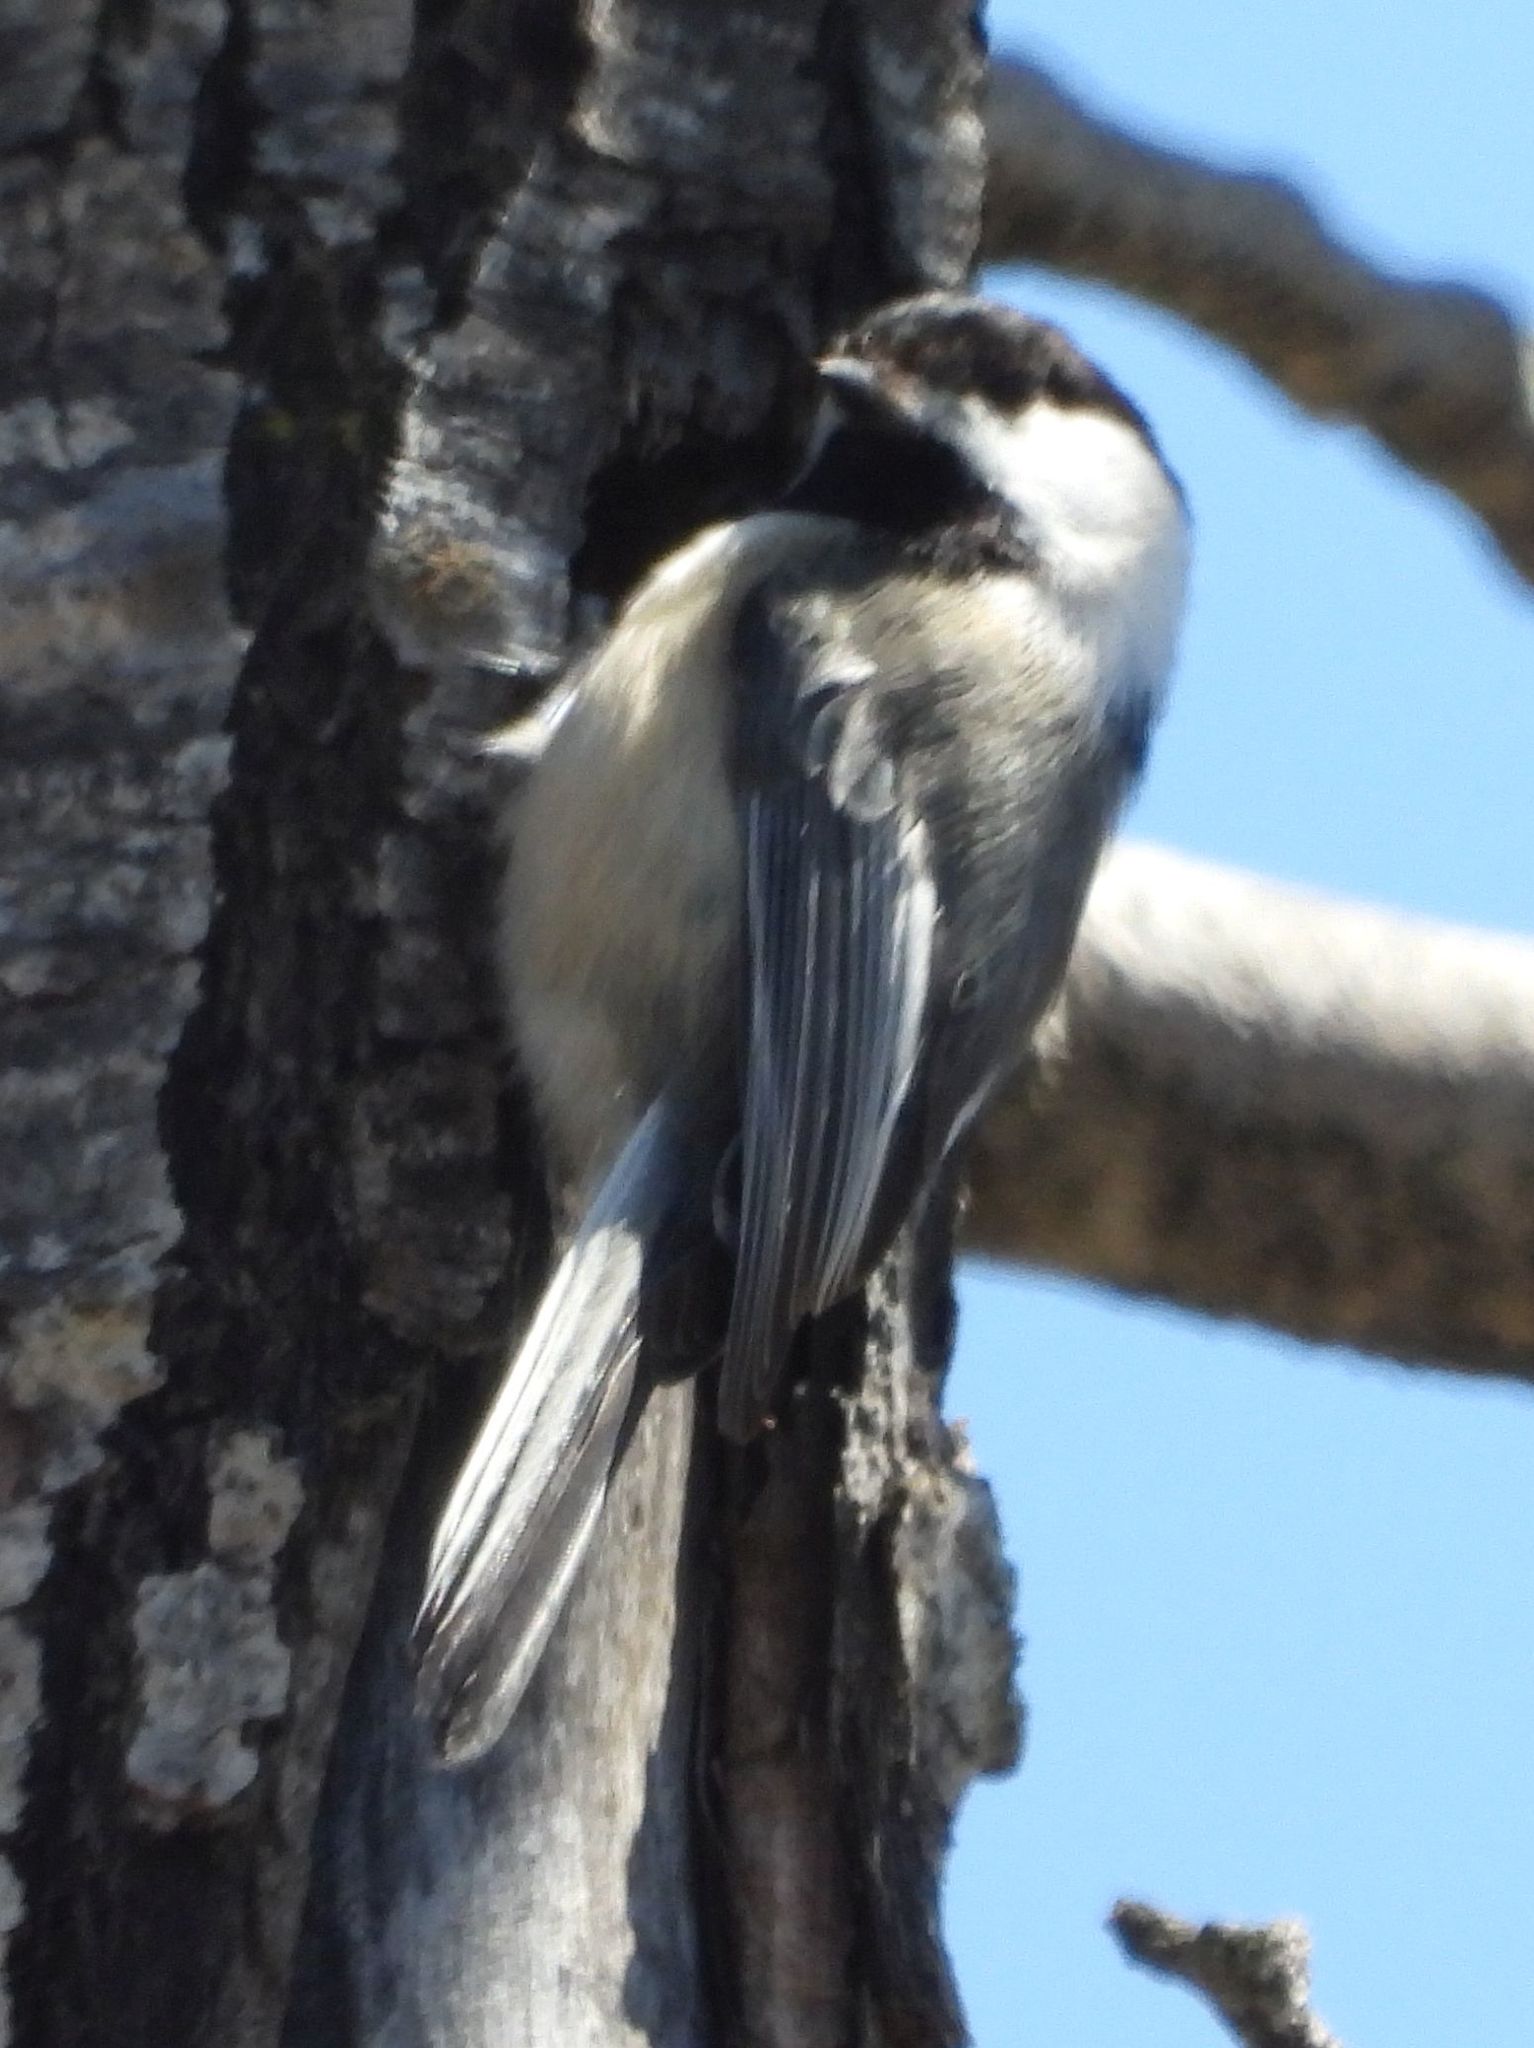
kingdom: Animalia
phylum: Chordata
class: Aves
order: Passeriformes
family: Paridae
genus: Poecile
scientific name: Poecile atricapillus
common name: Black-capped chickadee
